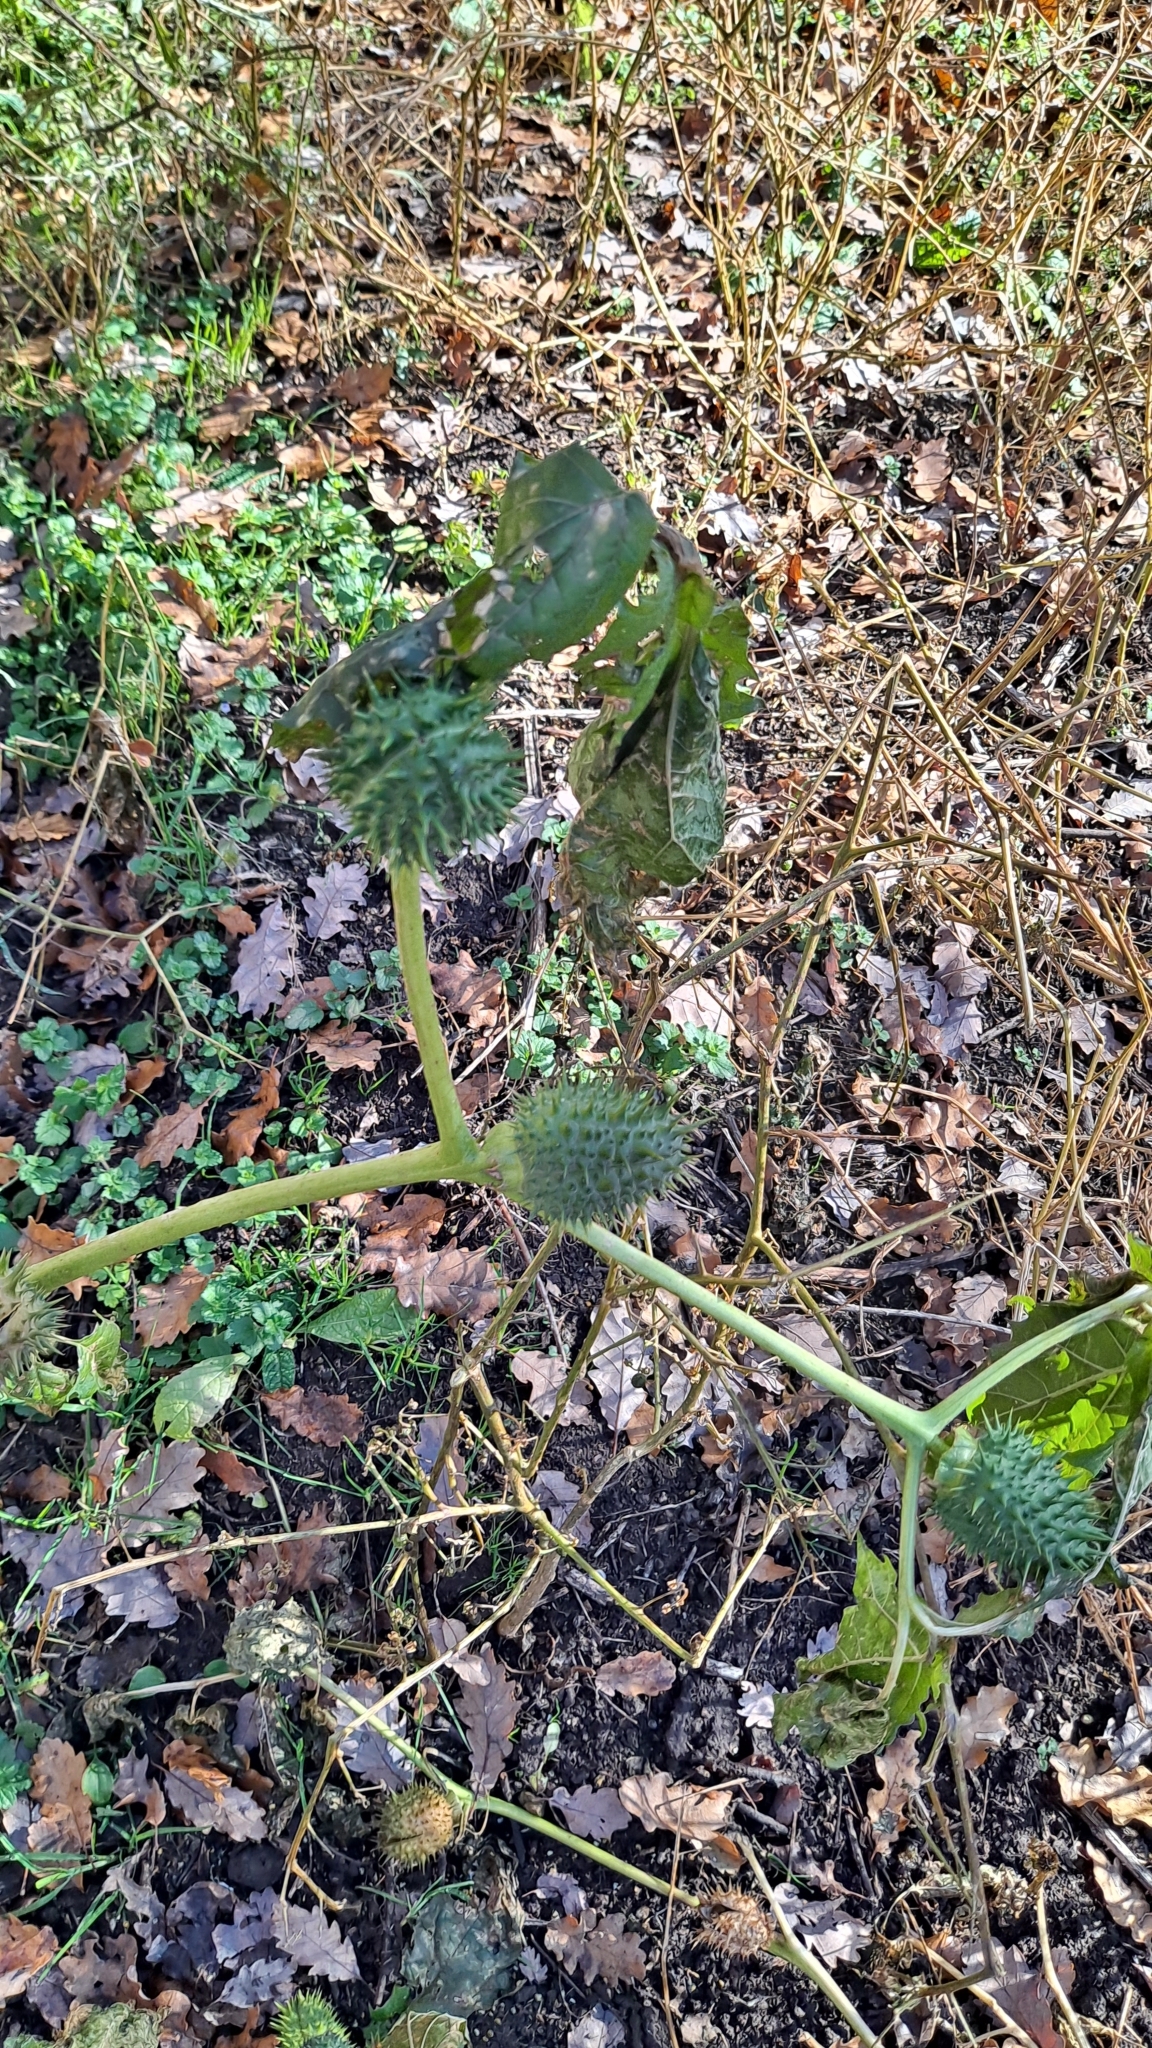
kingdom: Plantae
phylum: Tracheophyta
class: Magnoliopsida
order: Solanales
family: Solanaceae
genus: Datura
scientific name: Datura stramonium
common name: Thorn-apple
